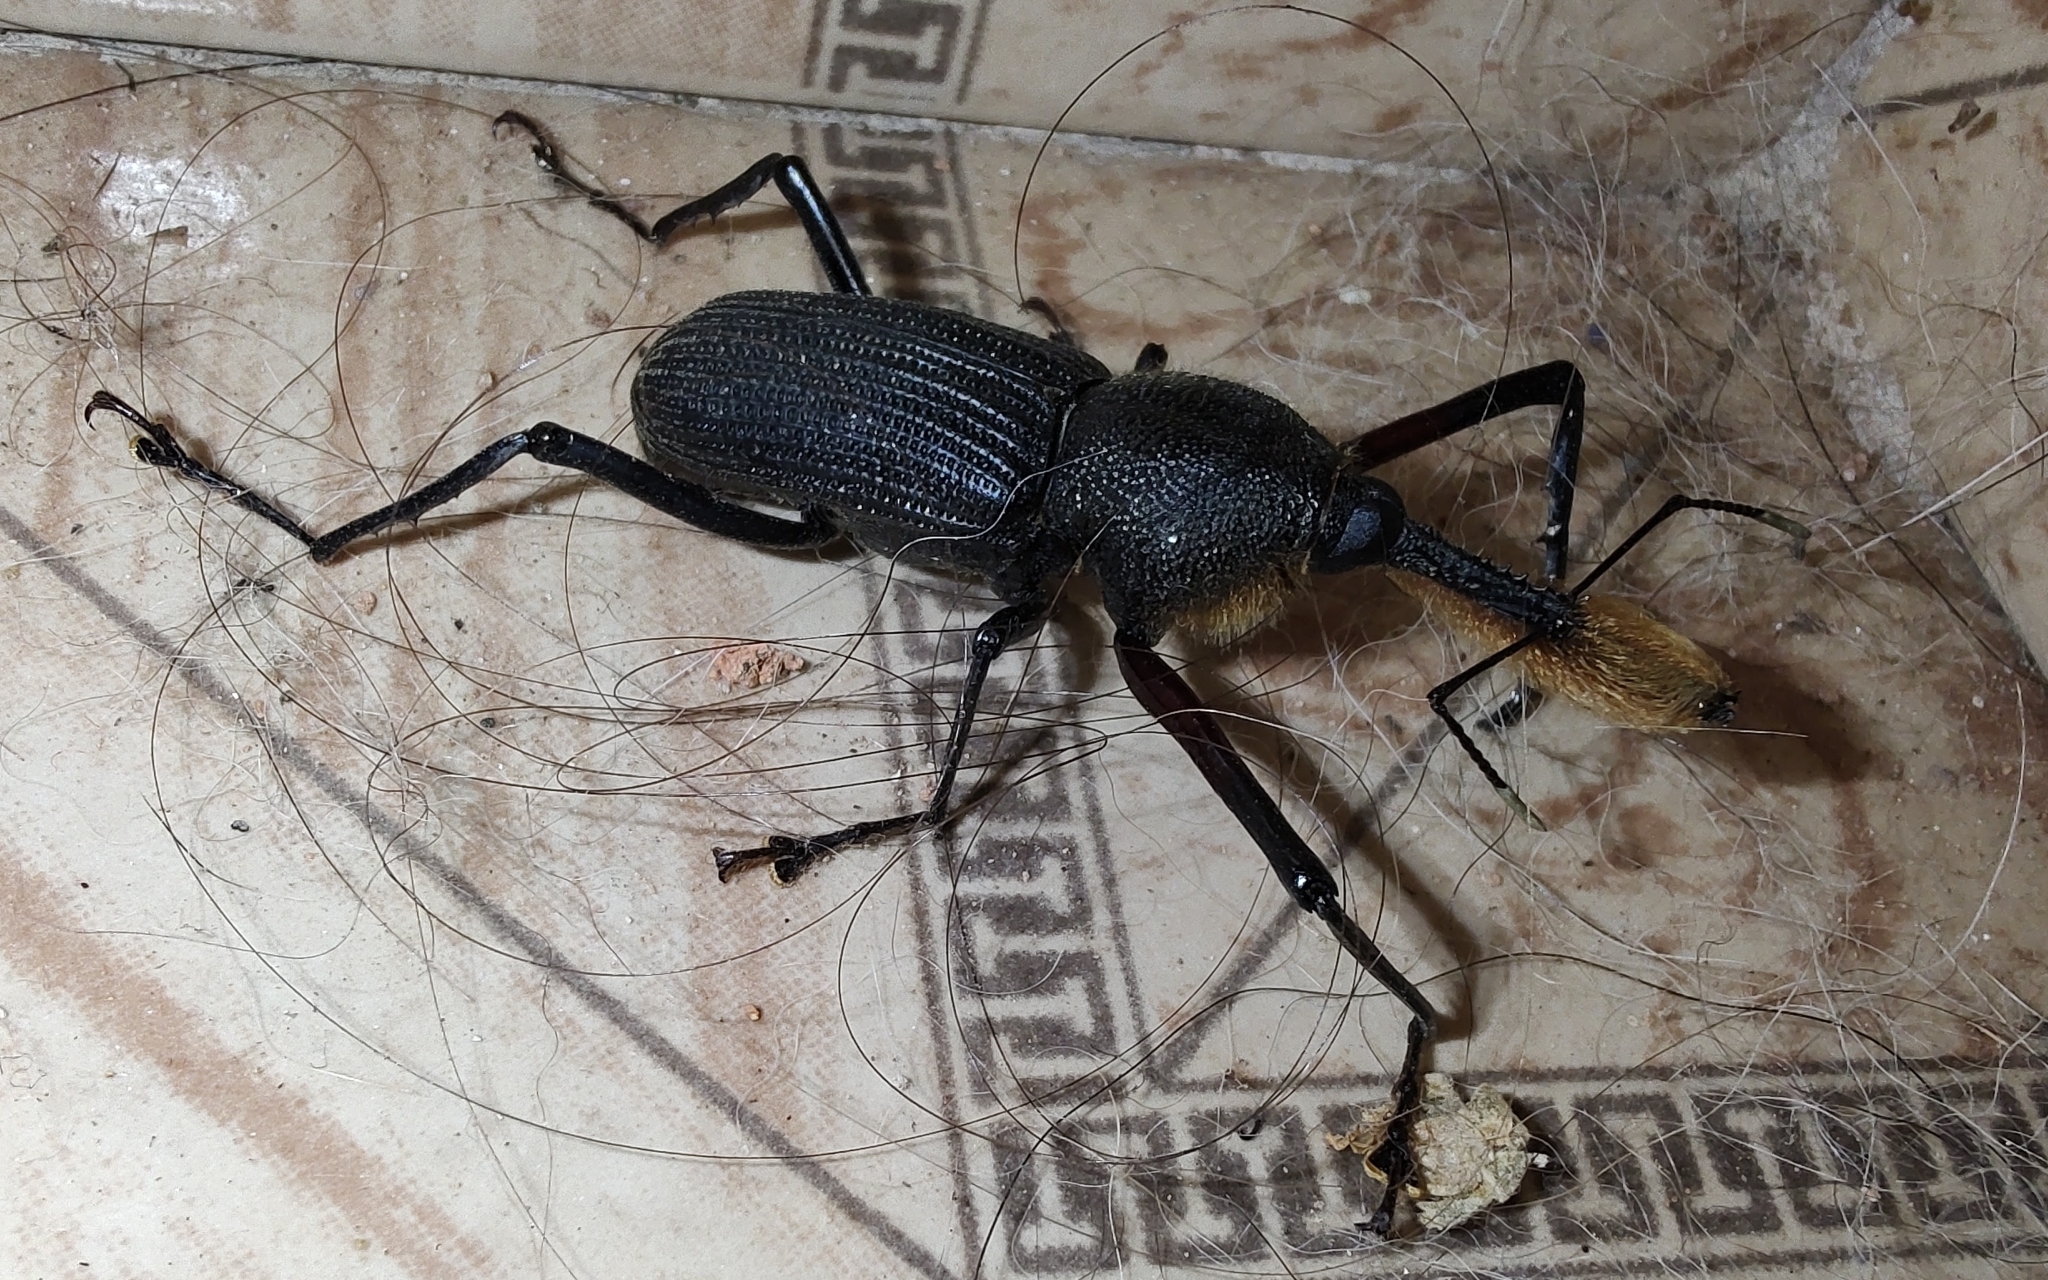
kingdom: Animalia
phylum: Arthropoda
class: Insecta
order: Coleoptera
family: Dryophthoridae
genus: Rhinostomus
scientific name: Rhinostomus barbirostris
